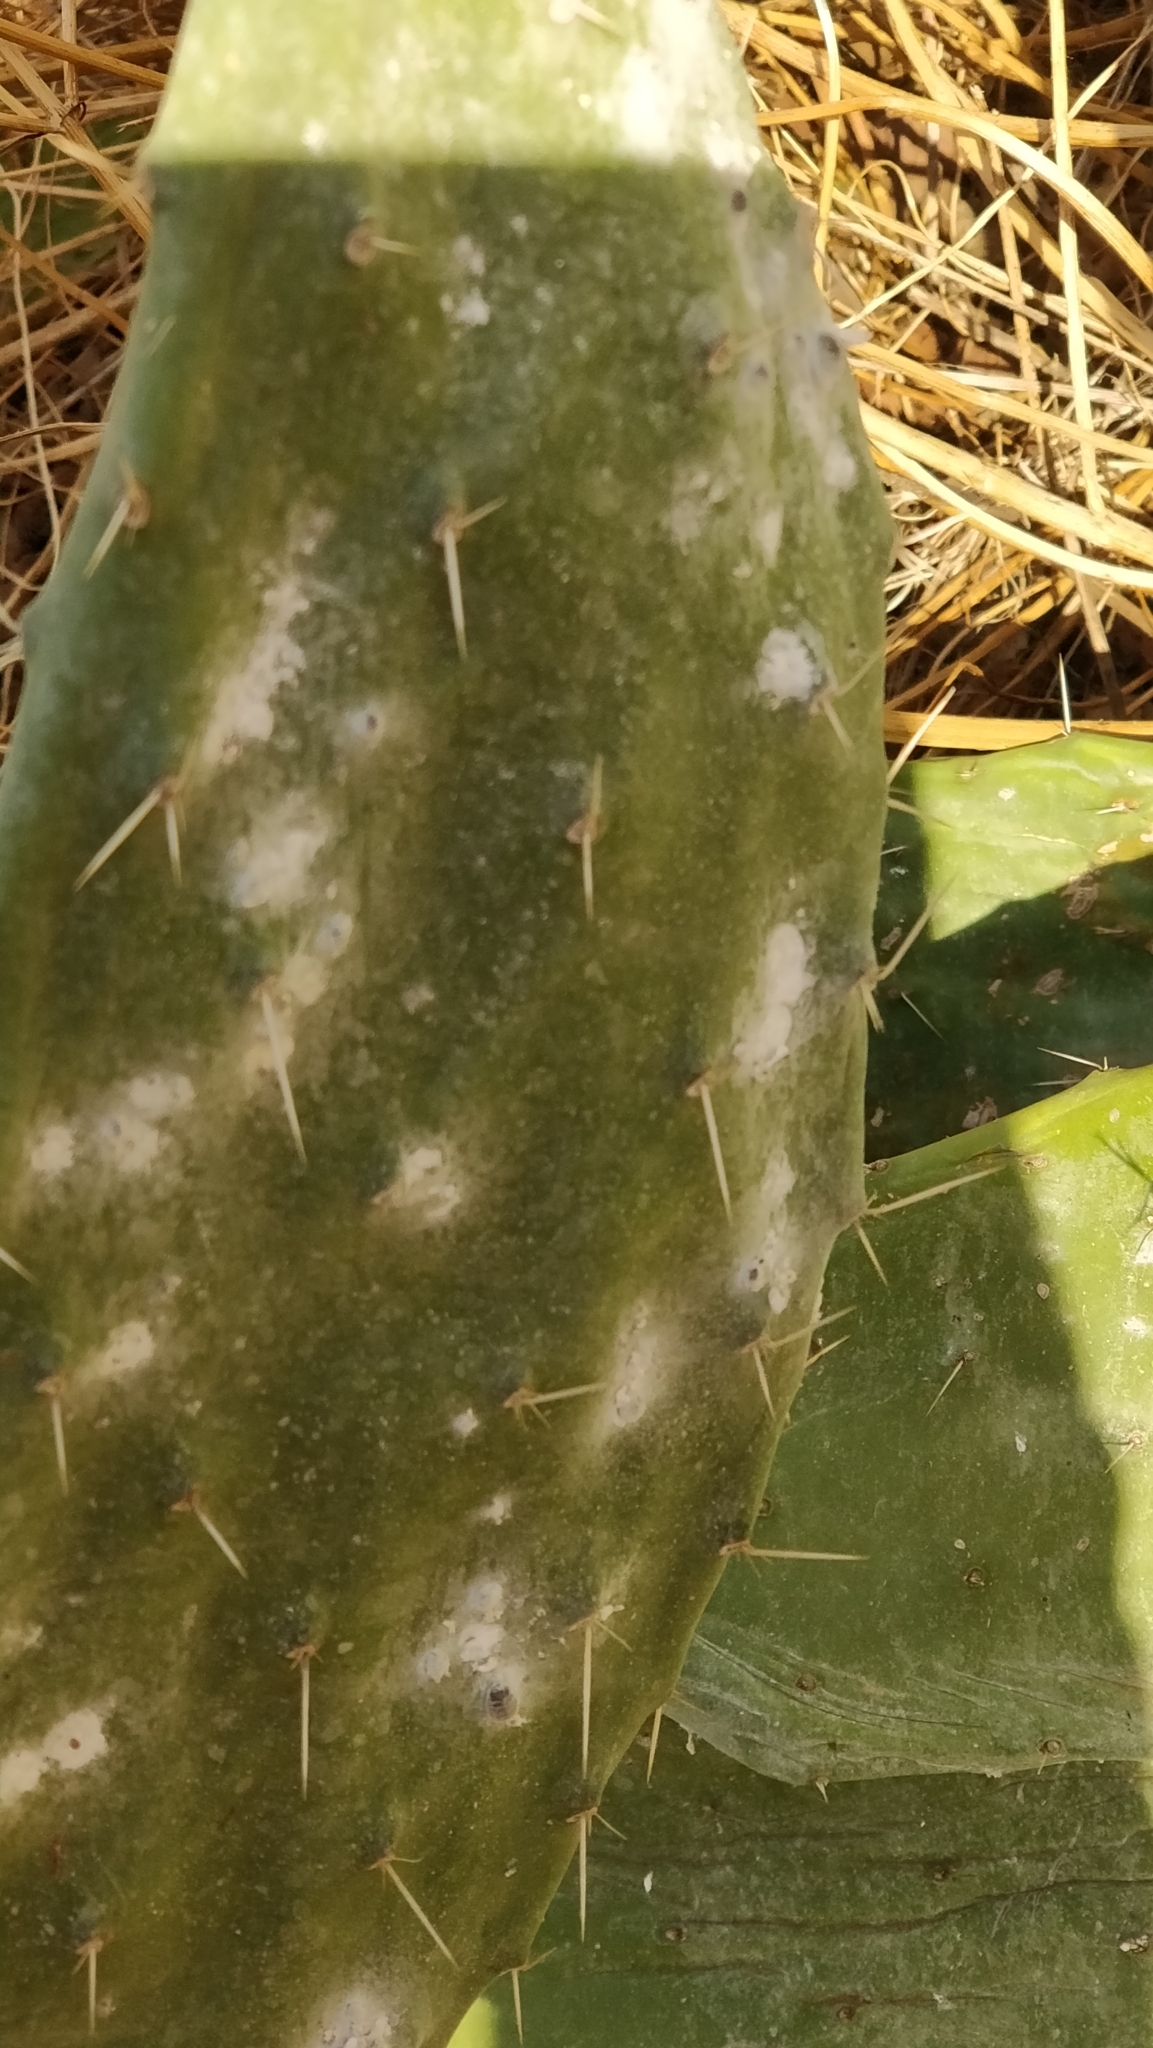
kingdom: Animalia
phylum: Arthropoda
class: Insecta
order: Hemiptera
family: Dactylopiidae
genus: Dactylopius
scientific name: Dactylopius coccus
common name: Cochineal
